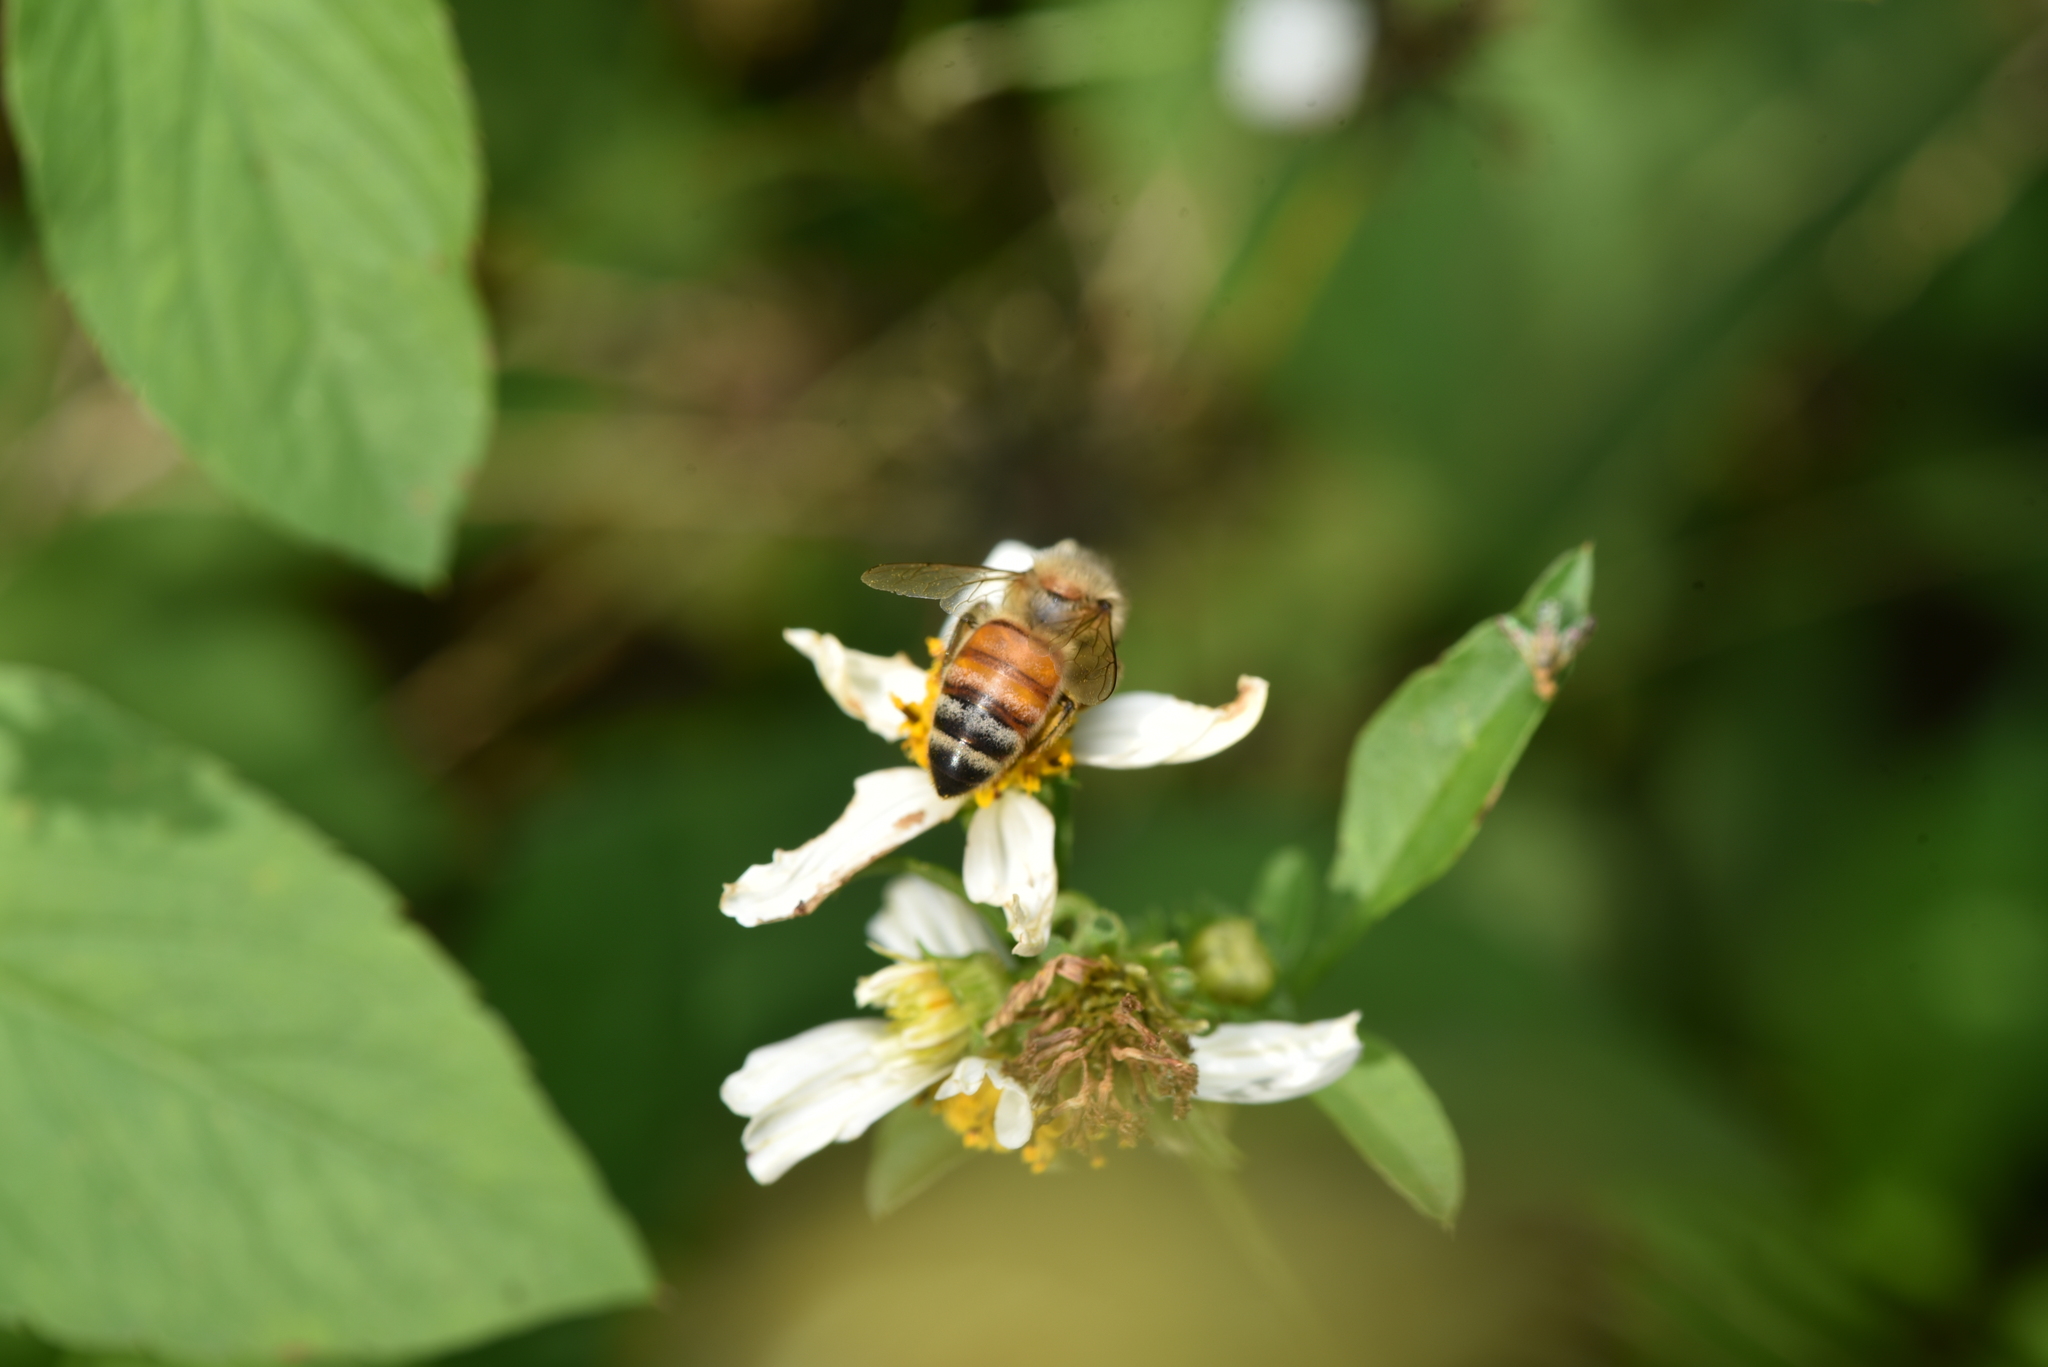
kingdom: Animalia
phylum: Arthropoda
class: Insecta
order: Hymenoptera
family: Apidae
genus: Apis
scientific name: Apis mellifera
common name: Honey bee
